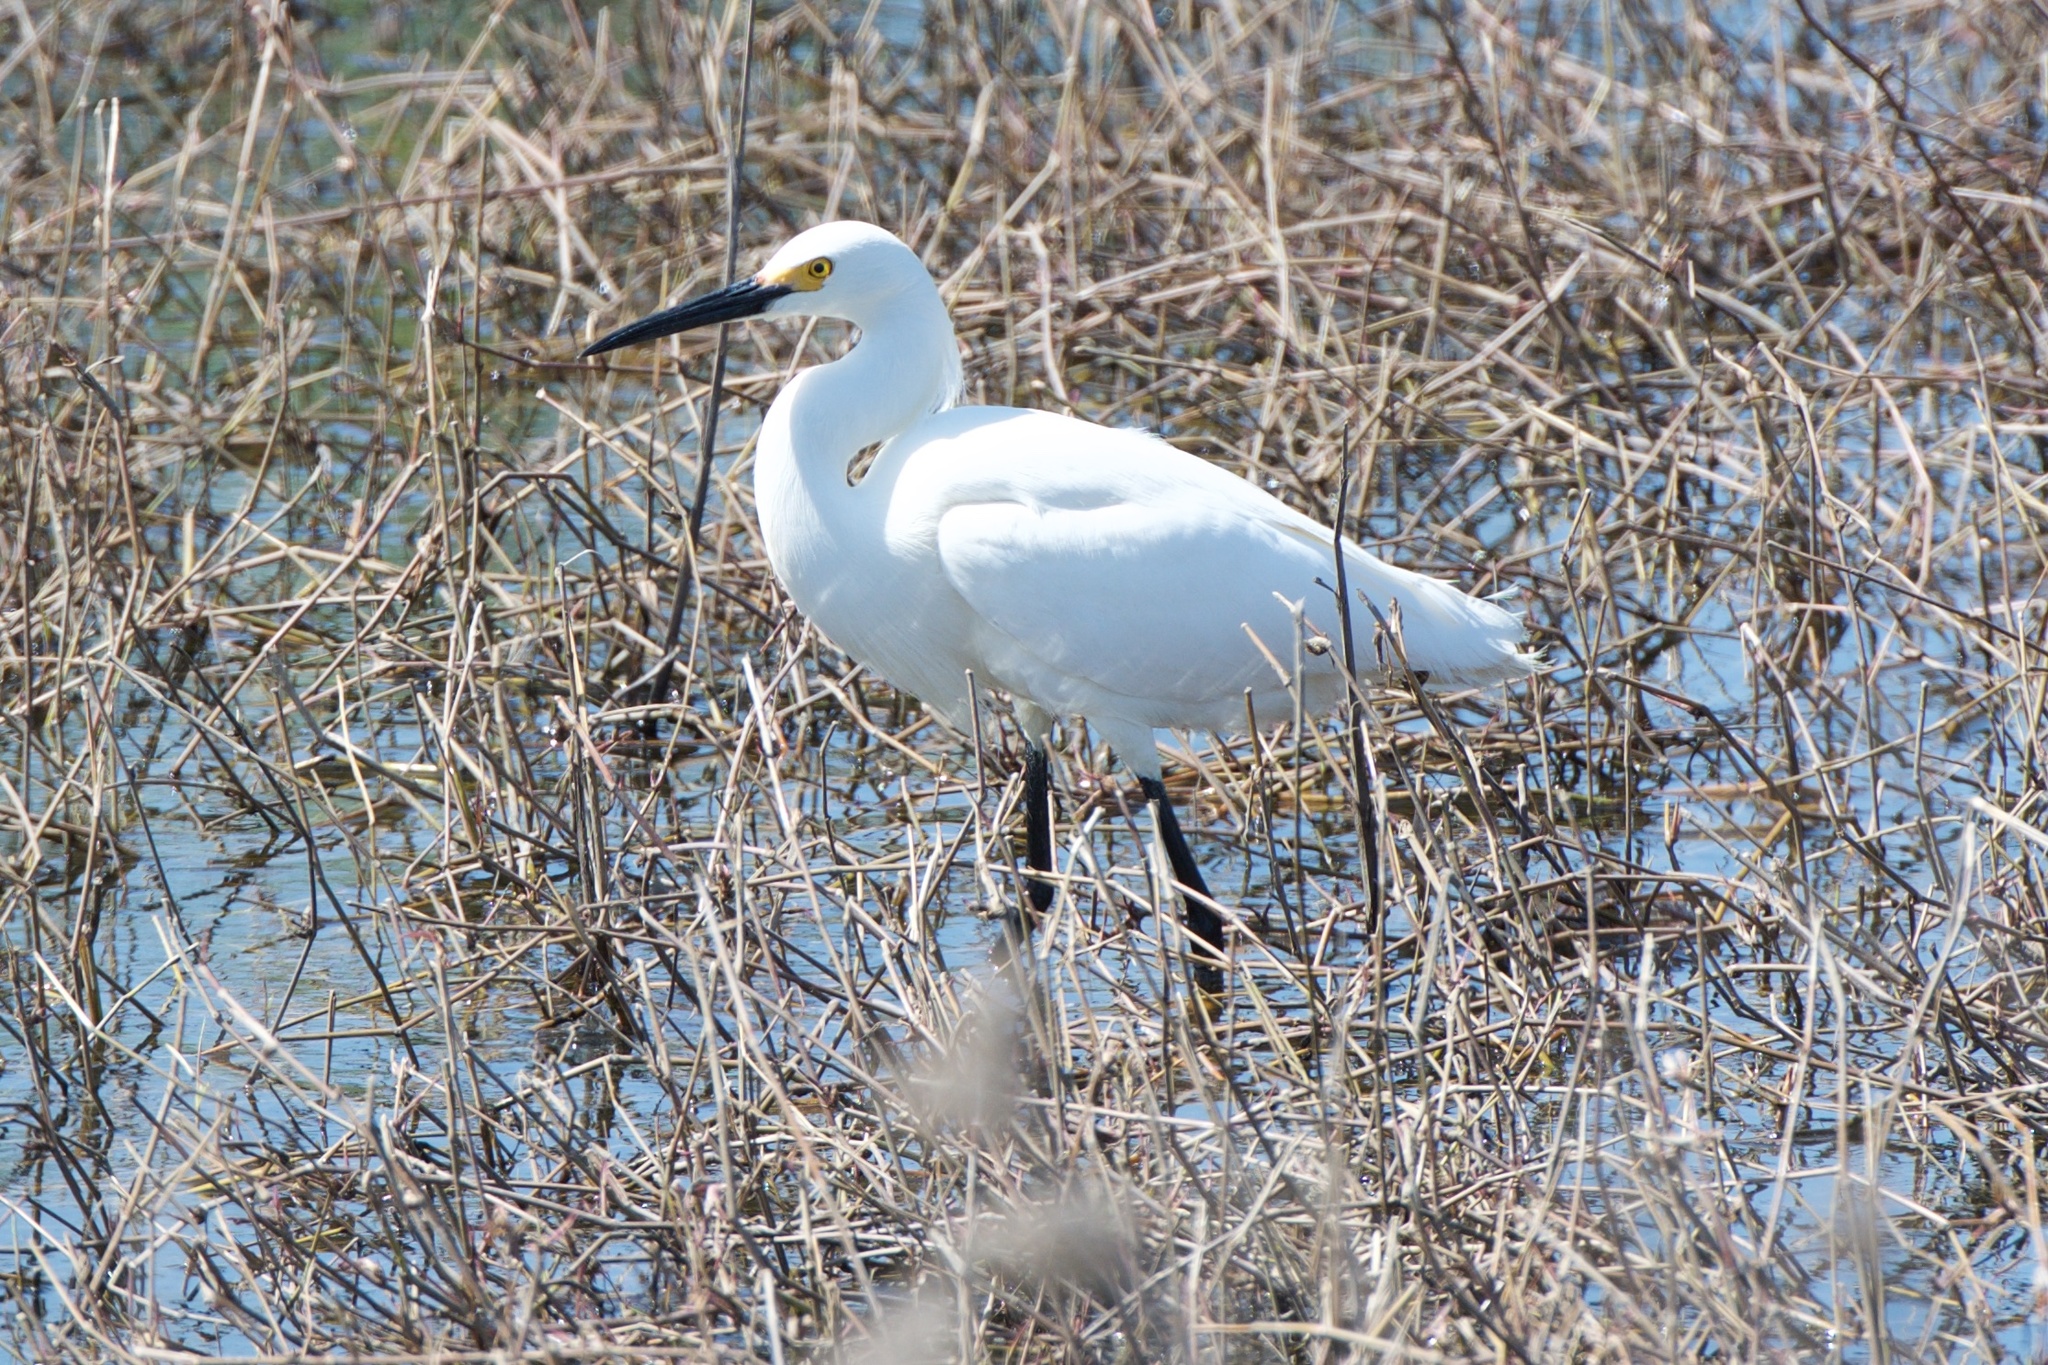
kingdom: Animalia
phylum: Chordata
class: Aves
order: Pelecaniformes
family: Ardeidae
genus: Egretta
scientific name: Egretta thula
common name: Snowy egret
